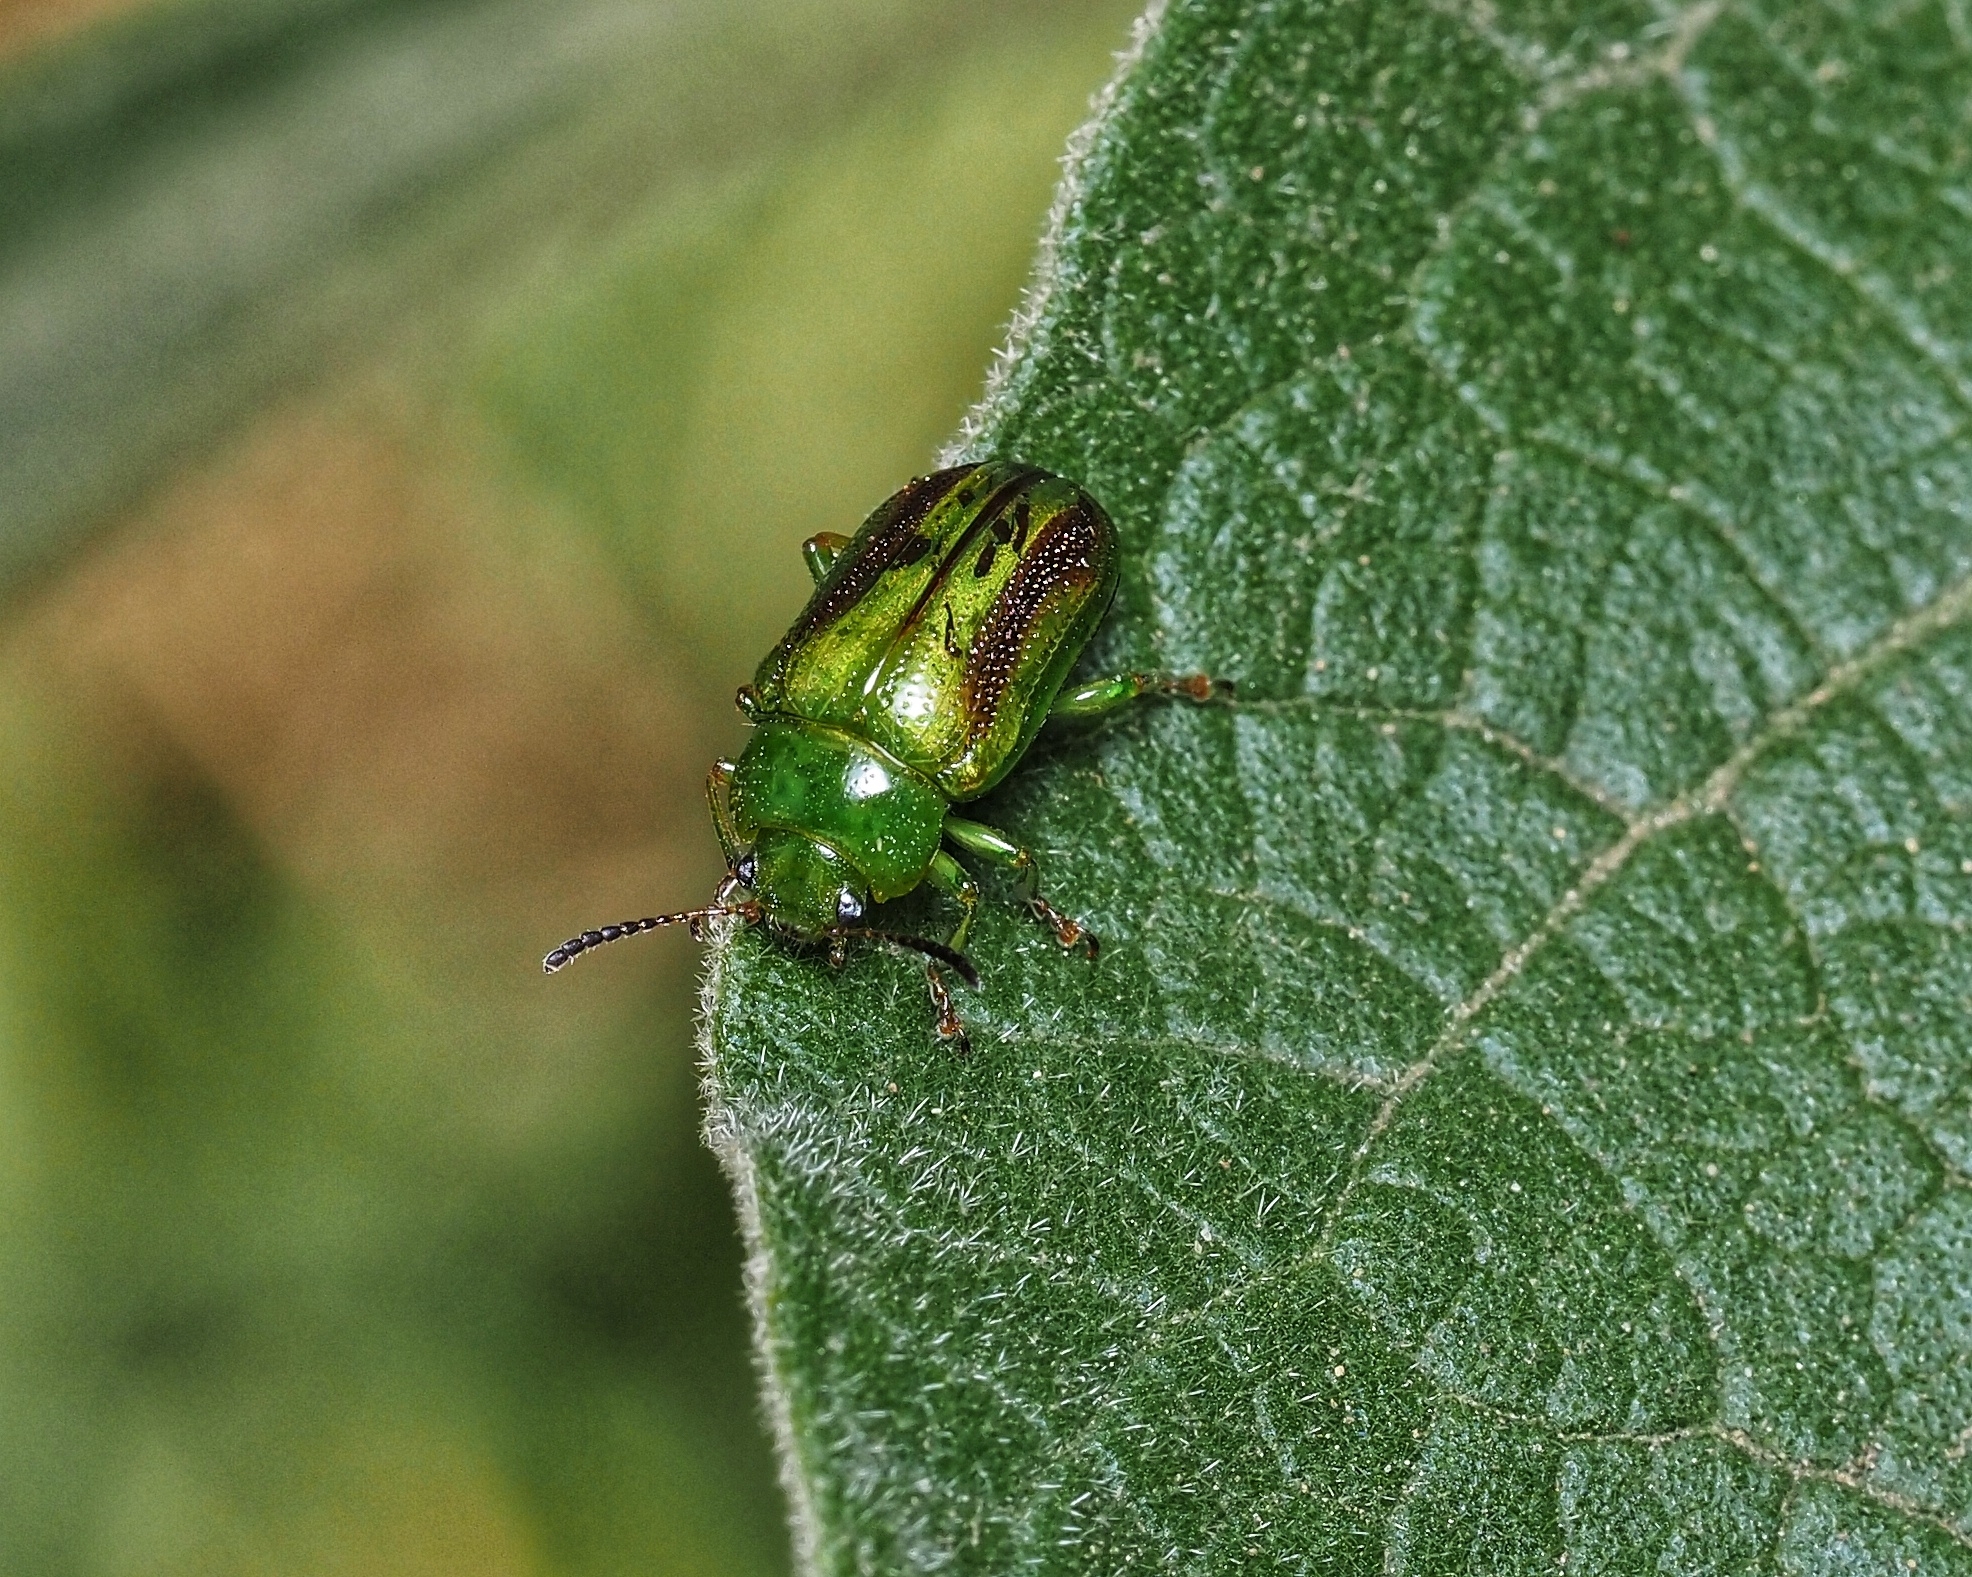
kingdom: Animalia
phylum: Arthropoda
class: Insecta
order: Coleoptera
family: Chrysomelidae
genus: Calomela
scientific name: Calomela
